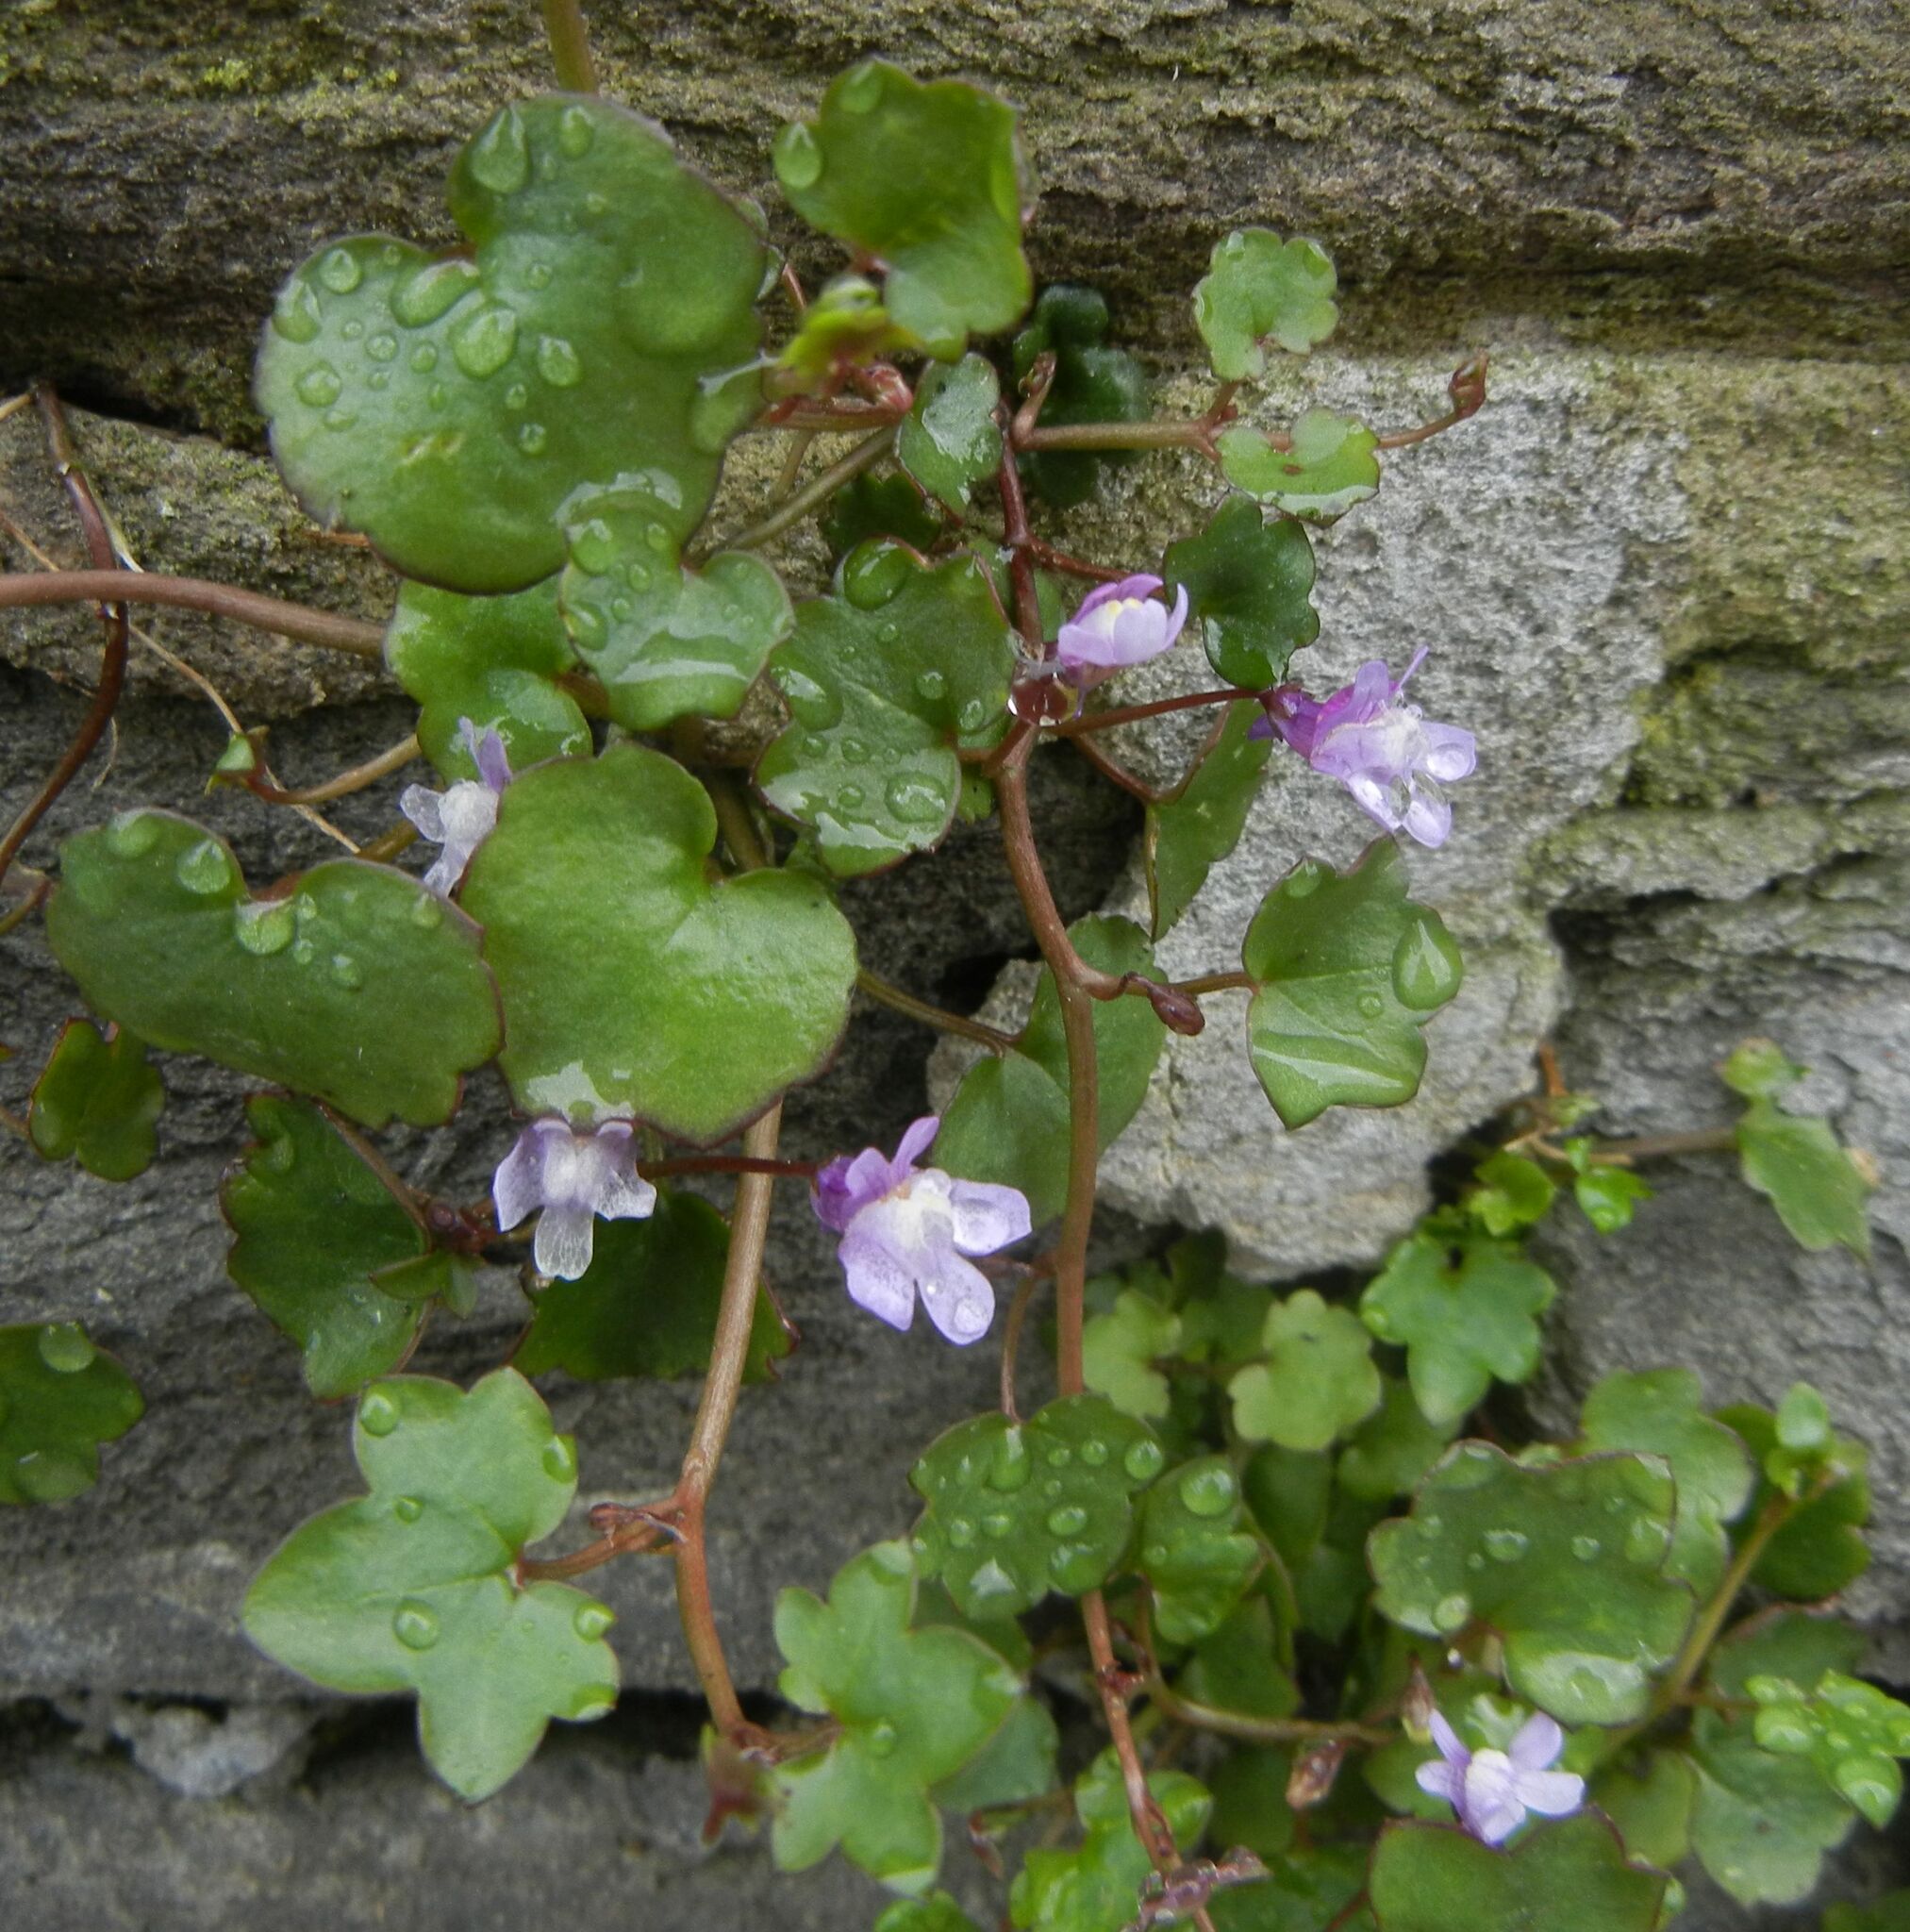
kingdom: Plantae
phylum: Tracheophyta
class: Magnoliopsida
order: Lamiales
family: Plantaginaceae
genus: Cymbalaria
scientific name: Cymbalaria muralis
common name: Ivy-leaved toadflax
